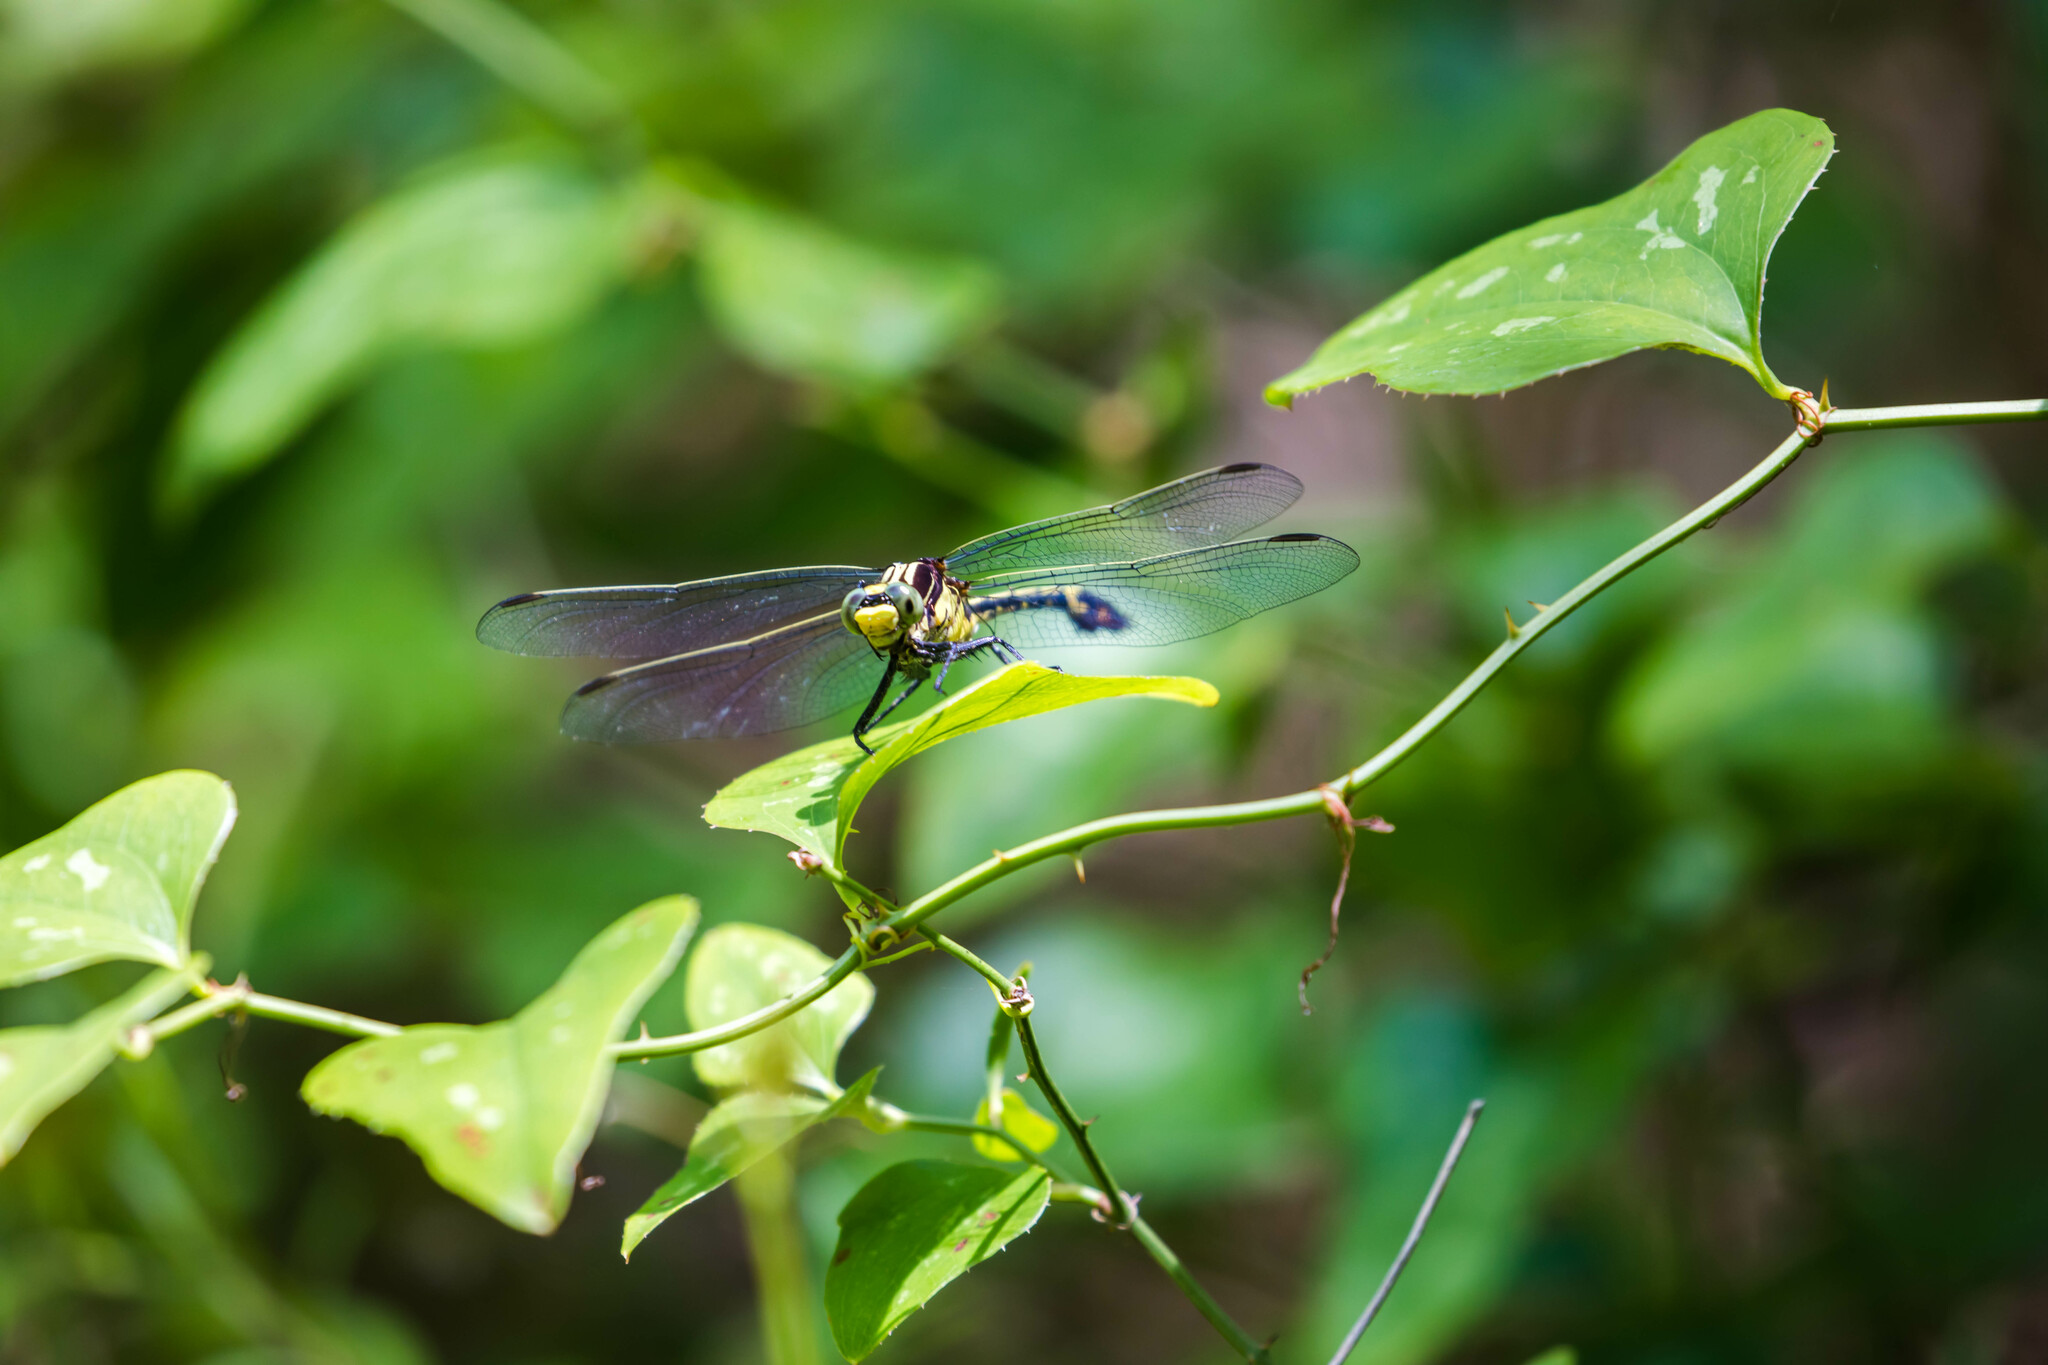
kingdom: Animalia
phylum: Arthropoda
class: Insecta
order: Odonata
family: Gomphidae
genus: Dromogomphus
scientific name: Dromogomphus spinosus
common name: Black-shouldered spinyleg
